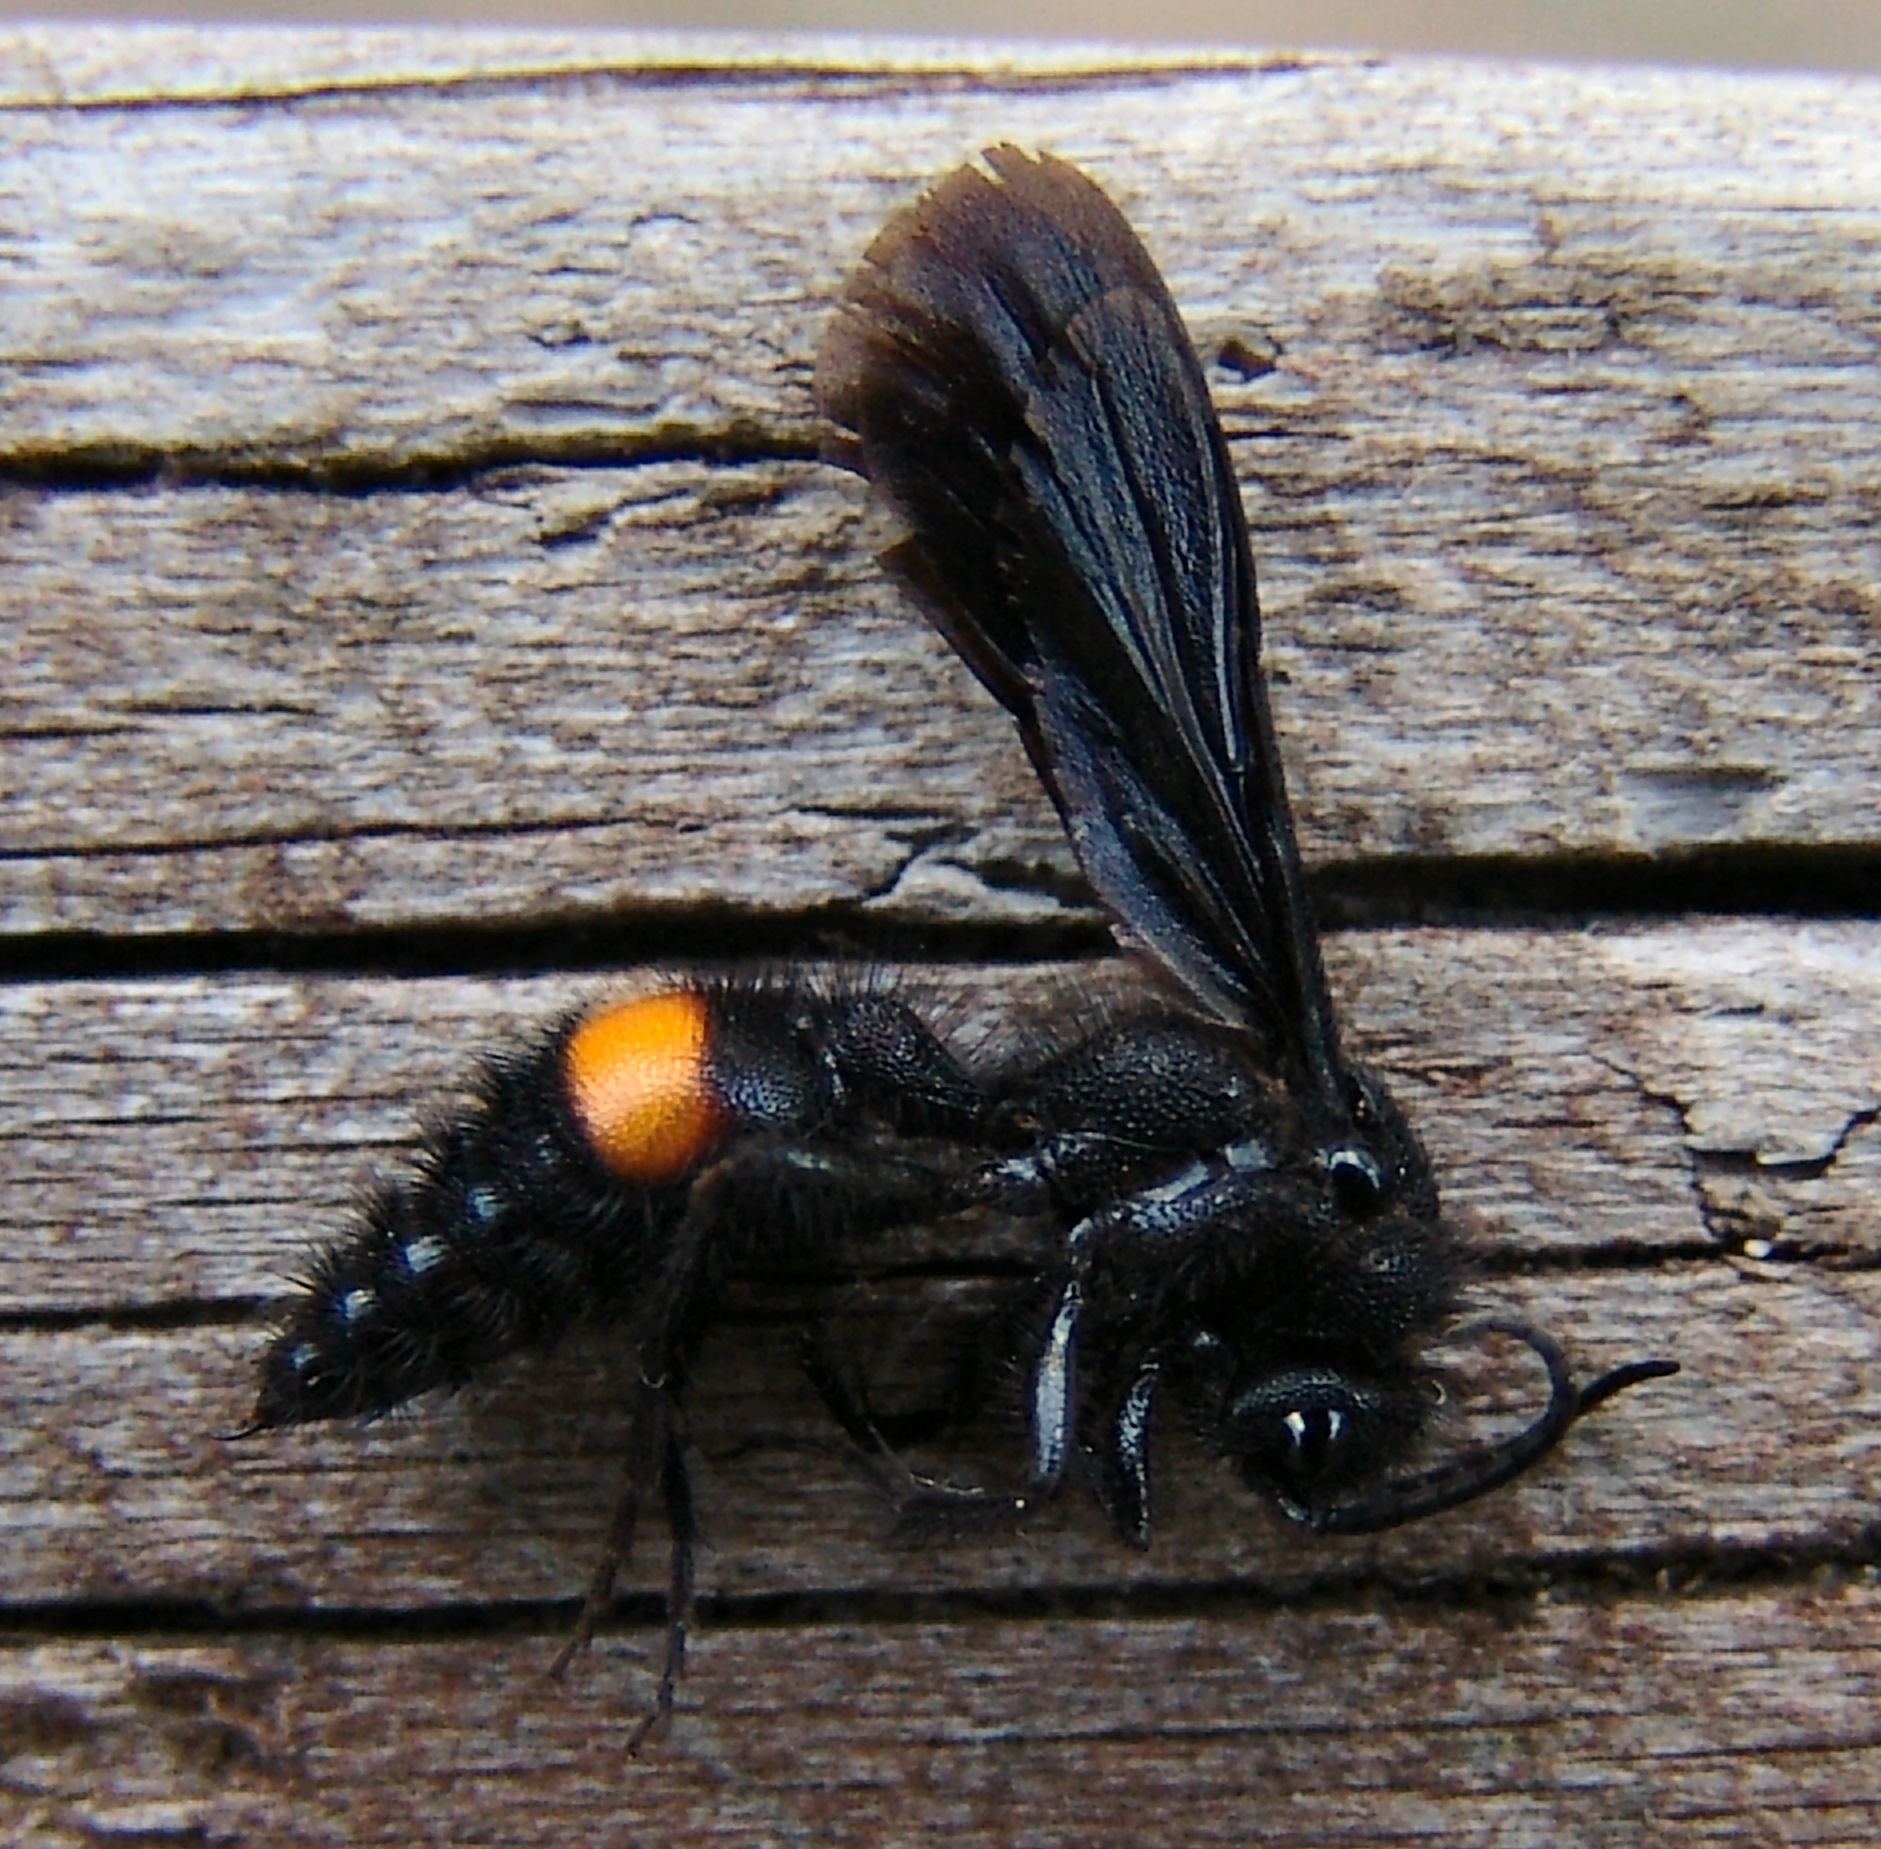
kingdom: Animalia
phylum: Arthropoda
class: Insecta
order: Hymenoptera
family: Mutillidae
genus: Dasymutilla
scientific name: Dasymutilla
